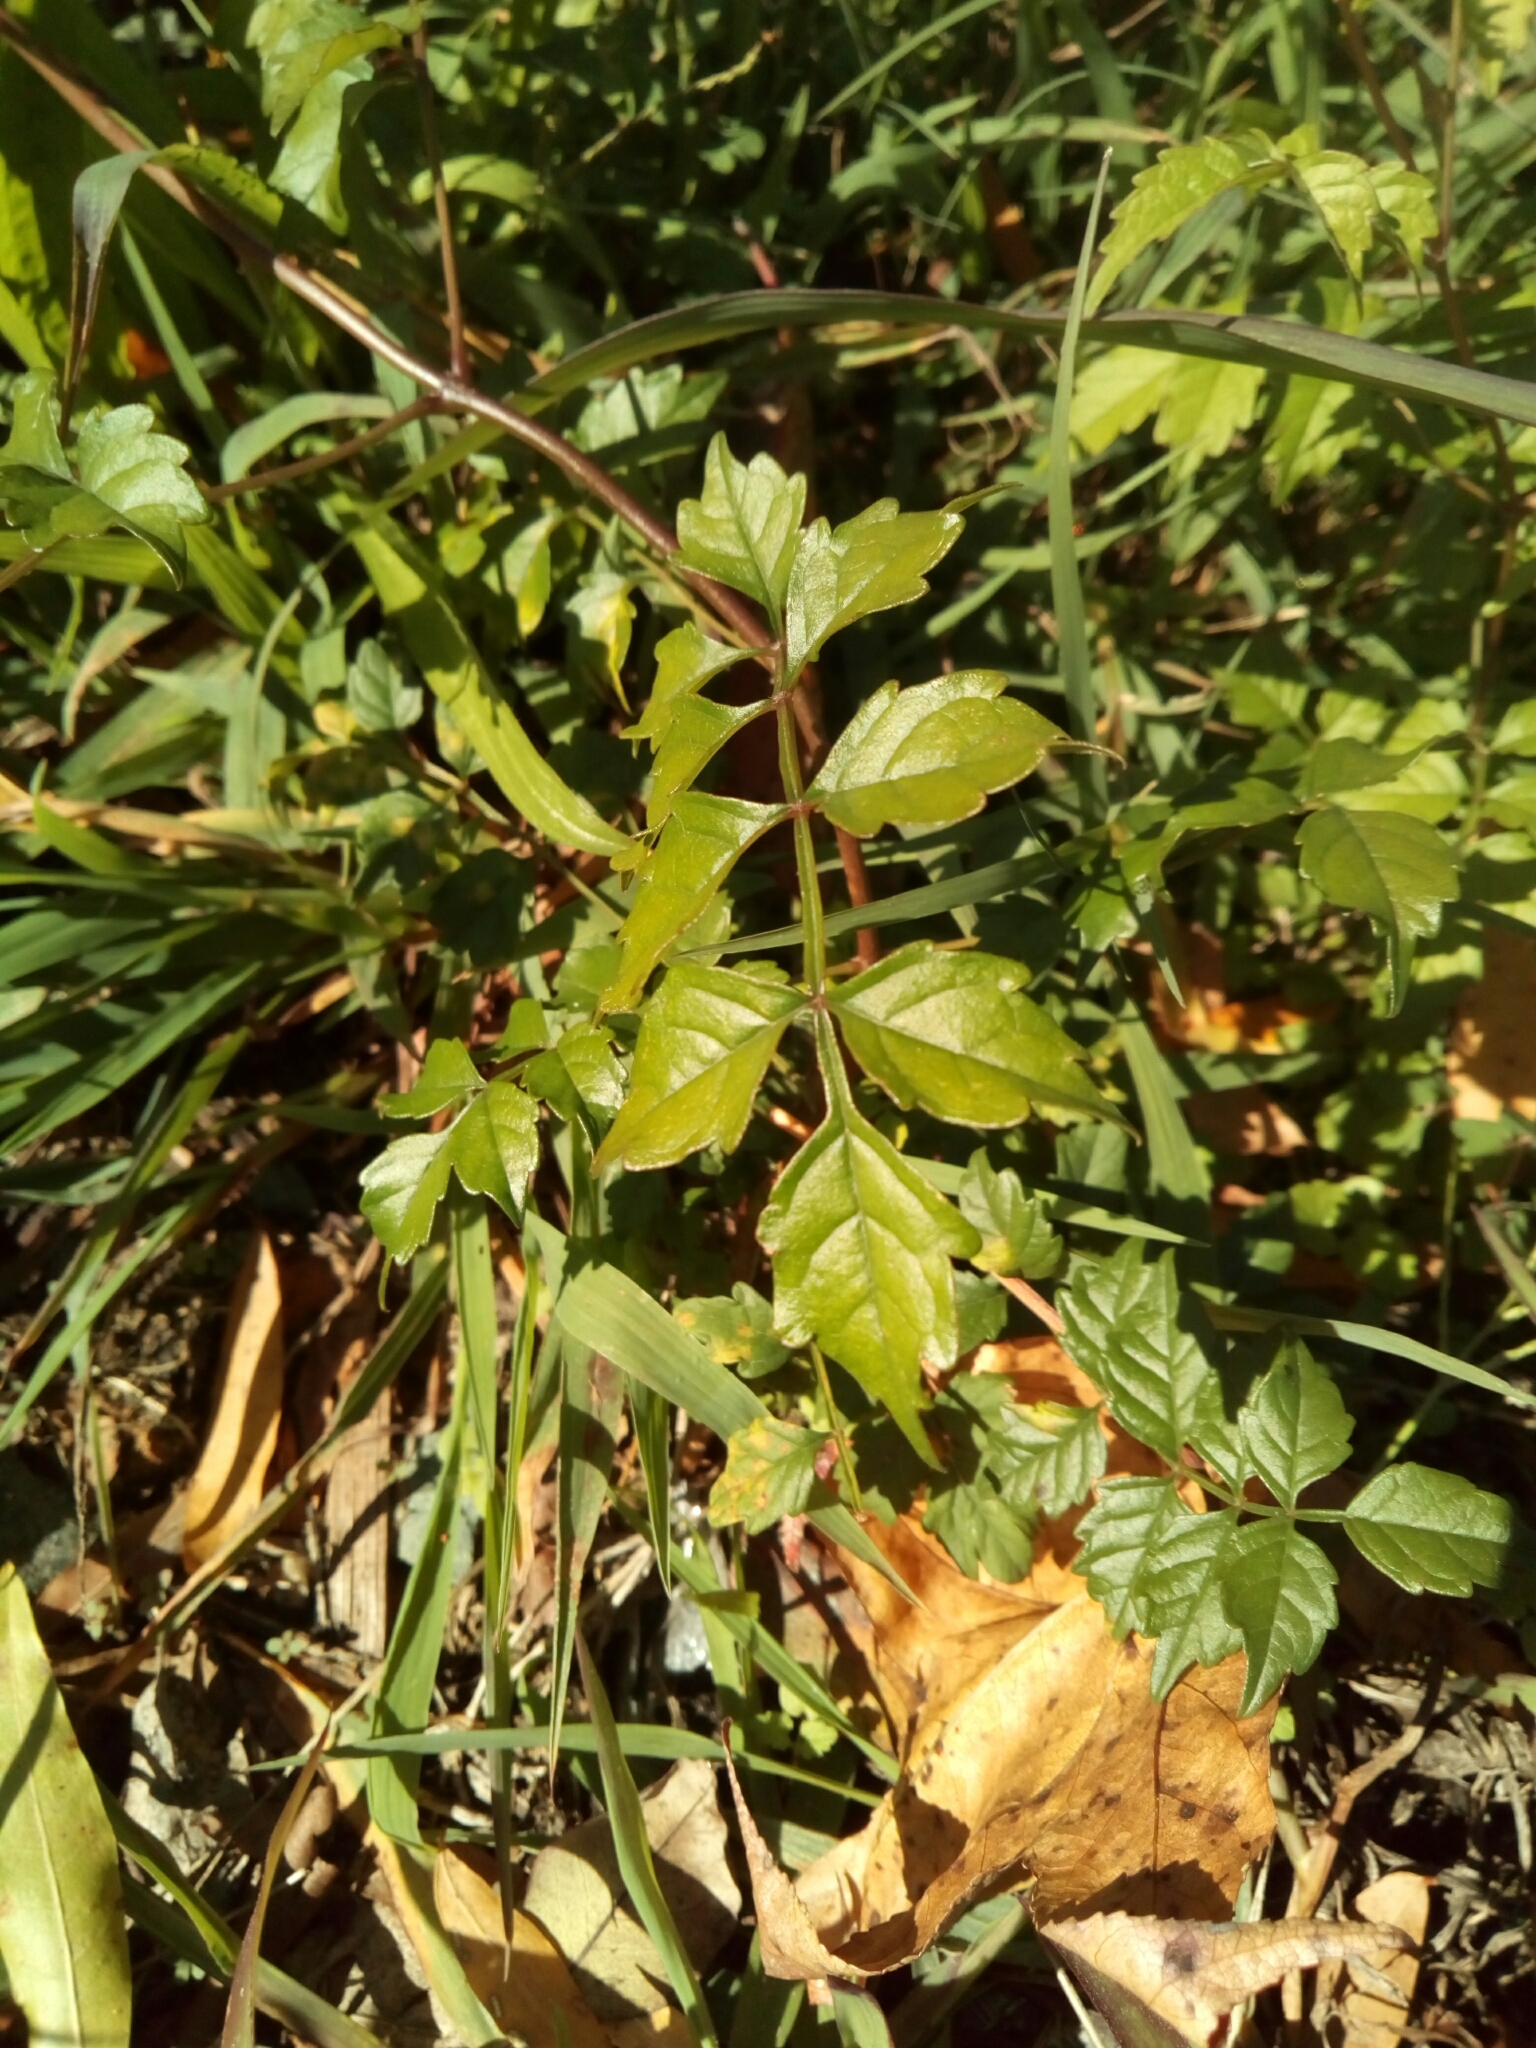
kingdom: Plantae
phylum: Tracheophyta
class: Magnoliopsida
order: Lamiales
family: Bignoniaceae
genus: Campsis
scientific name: Campsis radicans
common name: Trumpet-creeper
